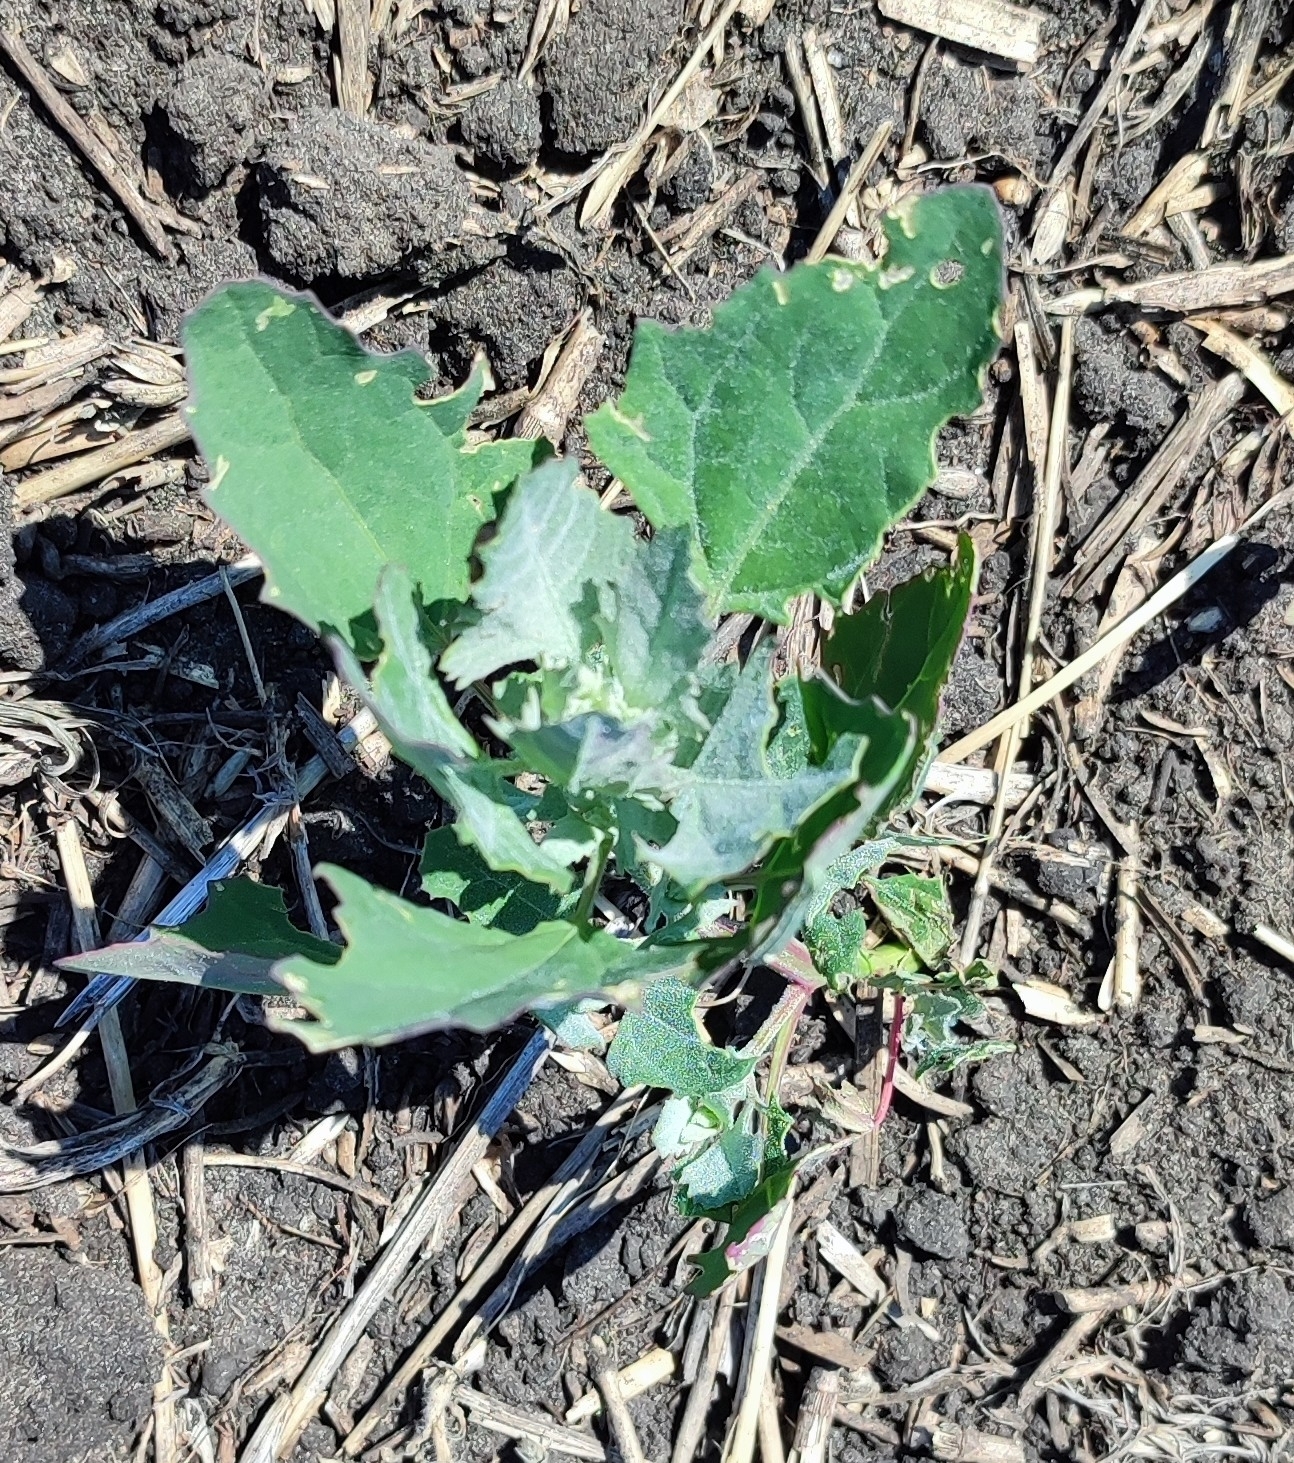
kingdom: Plantae
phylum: Tracheophyta
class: Magnoliopsida
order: Caryophyllales
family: Amaranthaceae
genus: Chenopodium
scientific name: Chenopodium album
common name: Fat-hen
